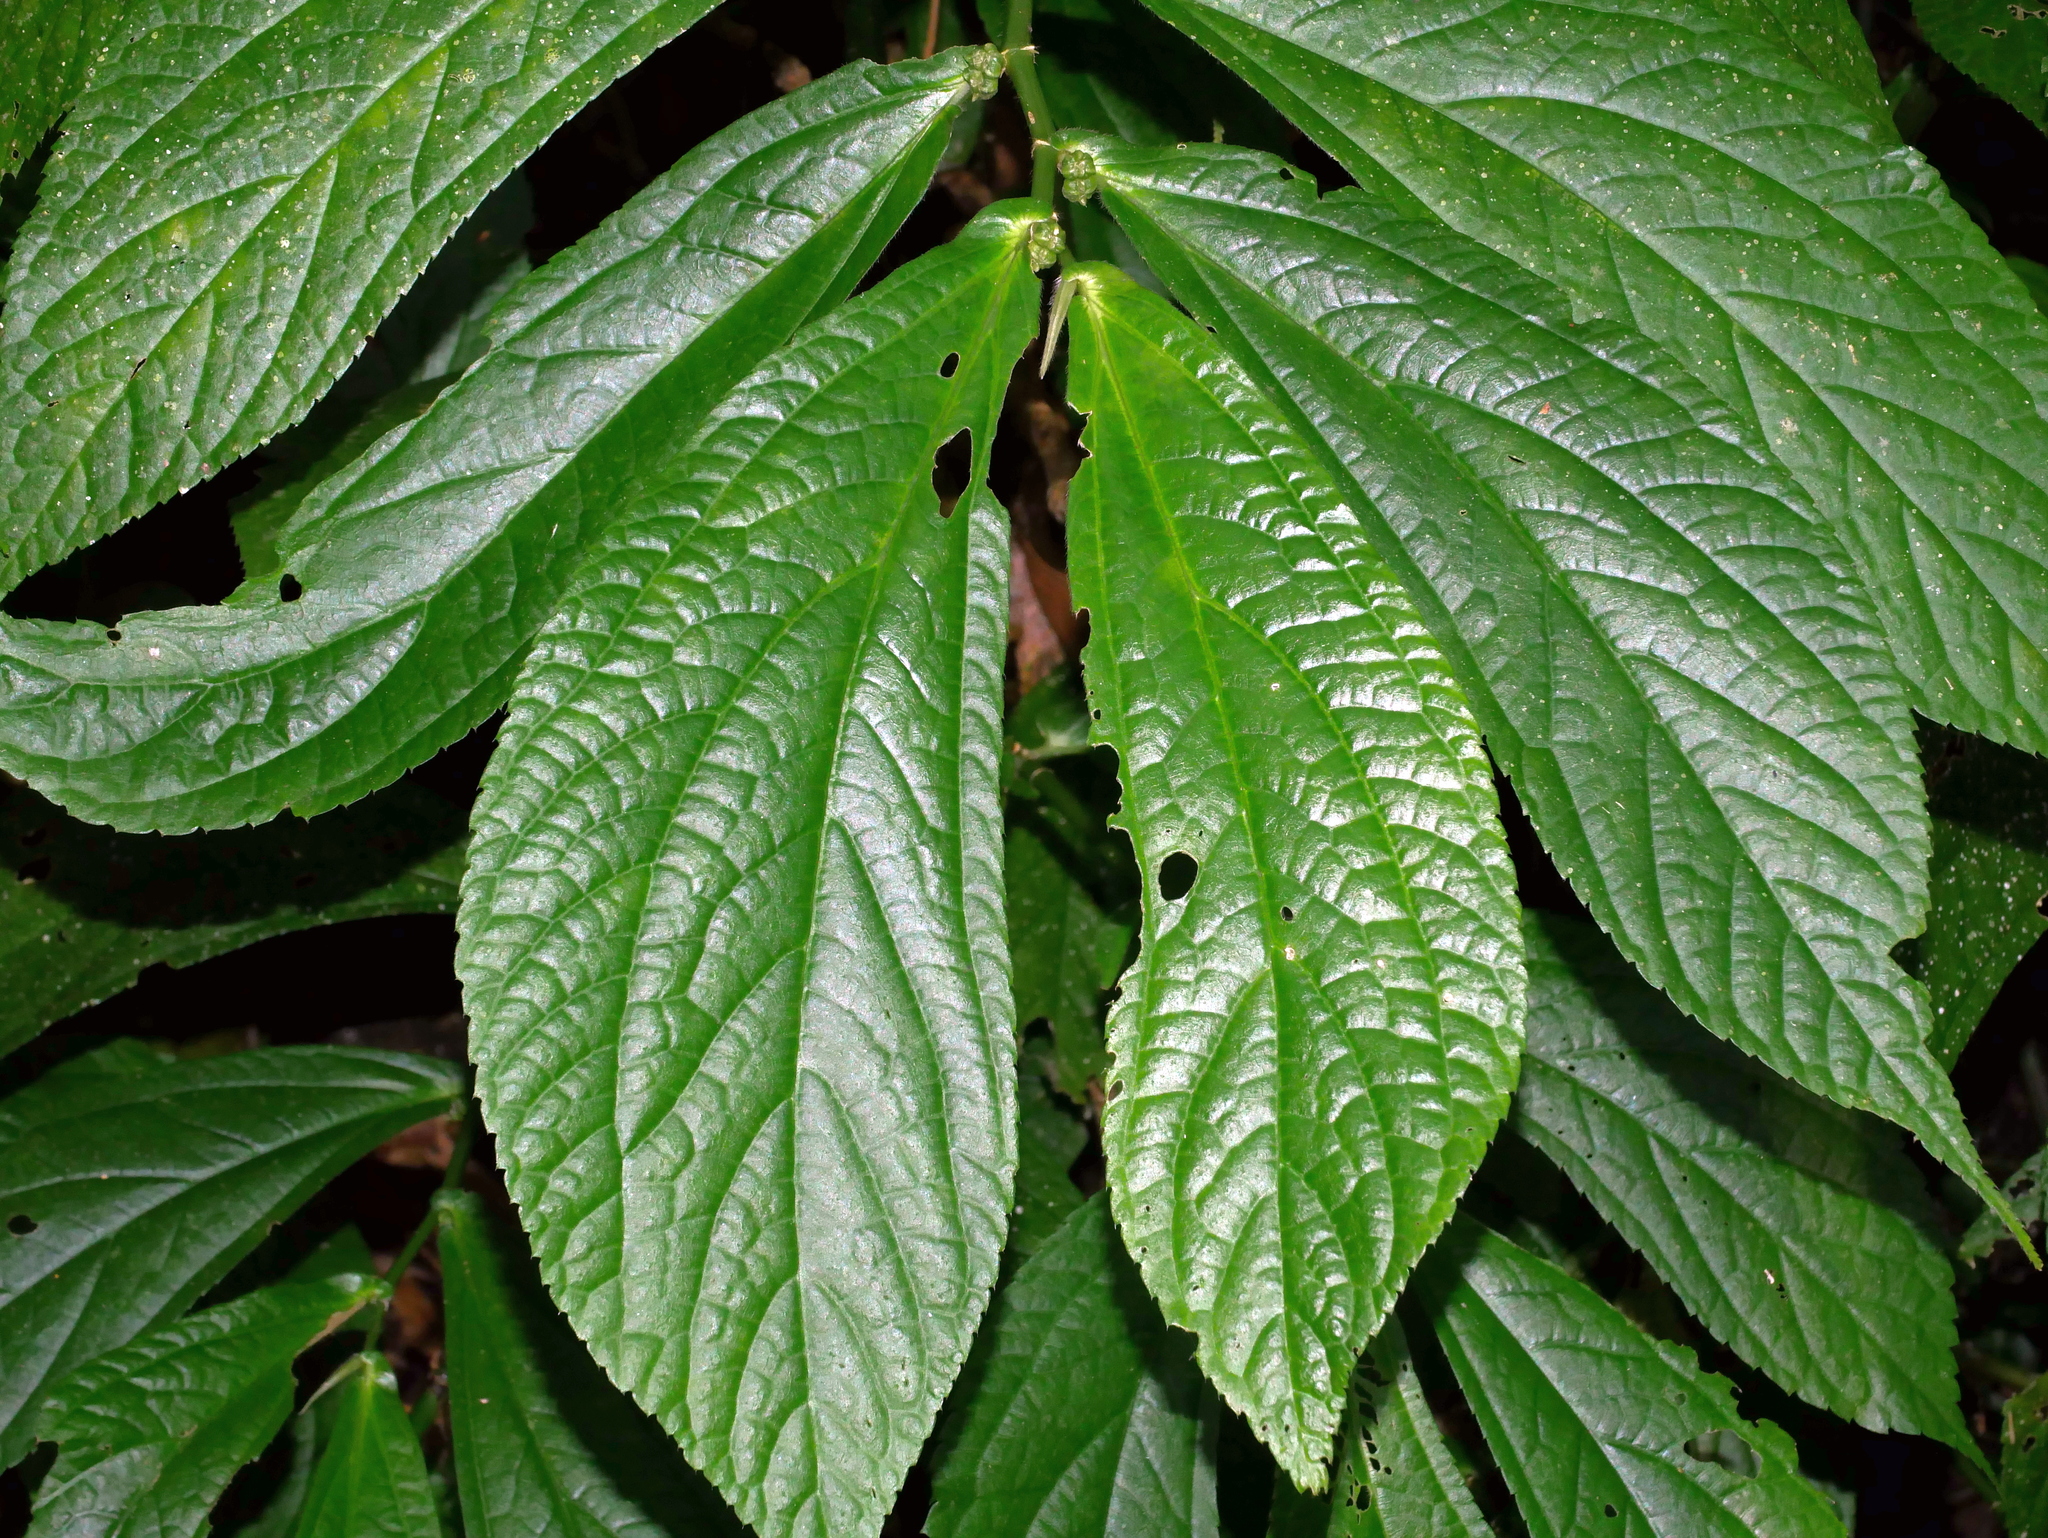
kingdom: Plantae
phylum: Tracheophyta
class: Magnoliopsida
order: Rosales
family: Urticaceae
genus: Elatostema
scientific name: Elatostema platyphyllum
